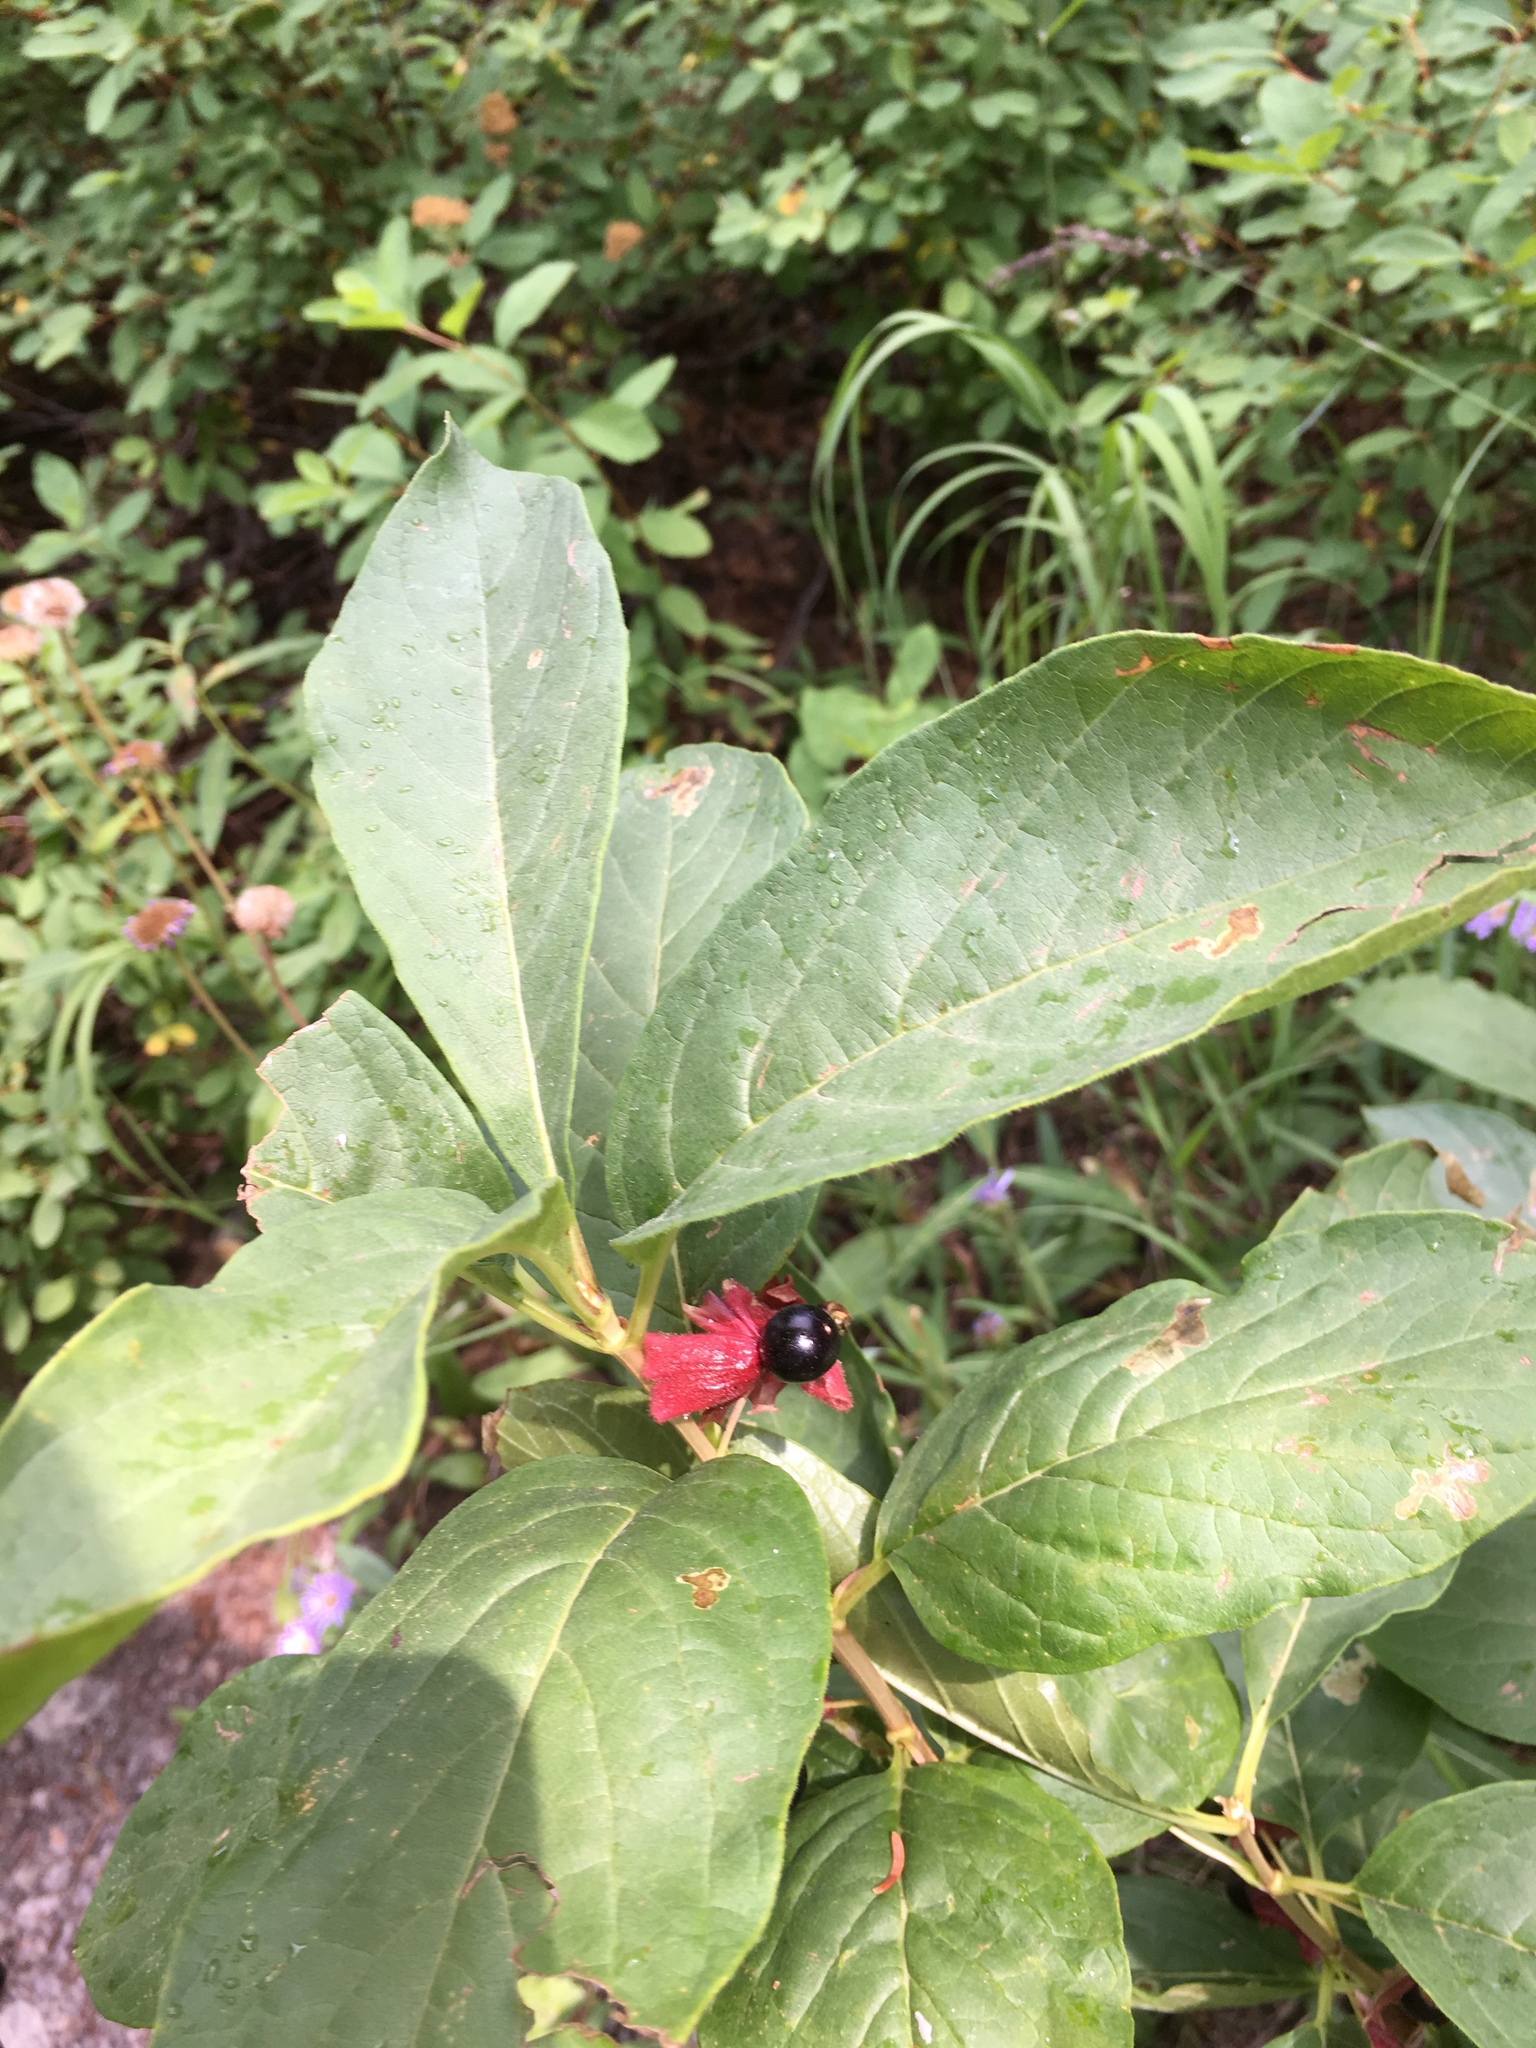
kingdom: Plantae
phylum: Tracheophyta
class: Magnoliopsida
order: Dipsacales
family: Caprifoliaceae
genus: Lonicera
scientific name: Lonicera involucrata
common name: Californian honeysuckle
